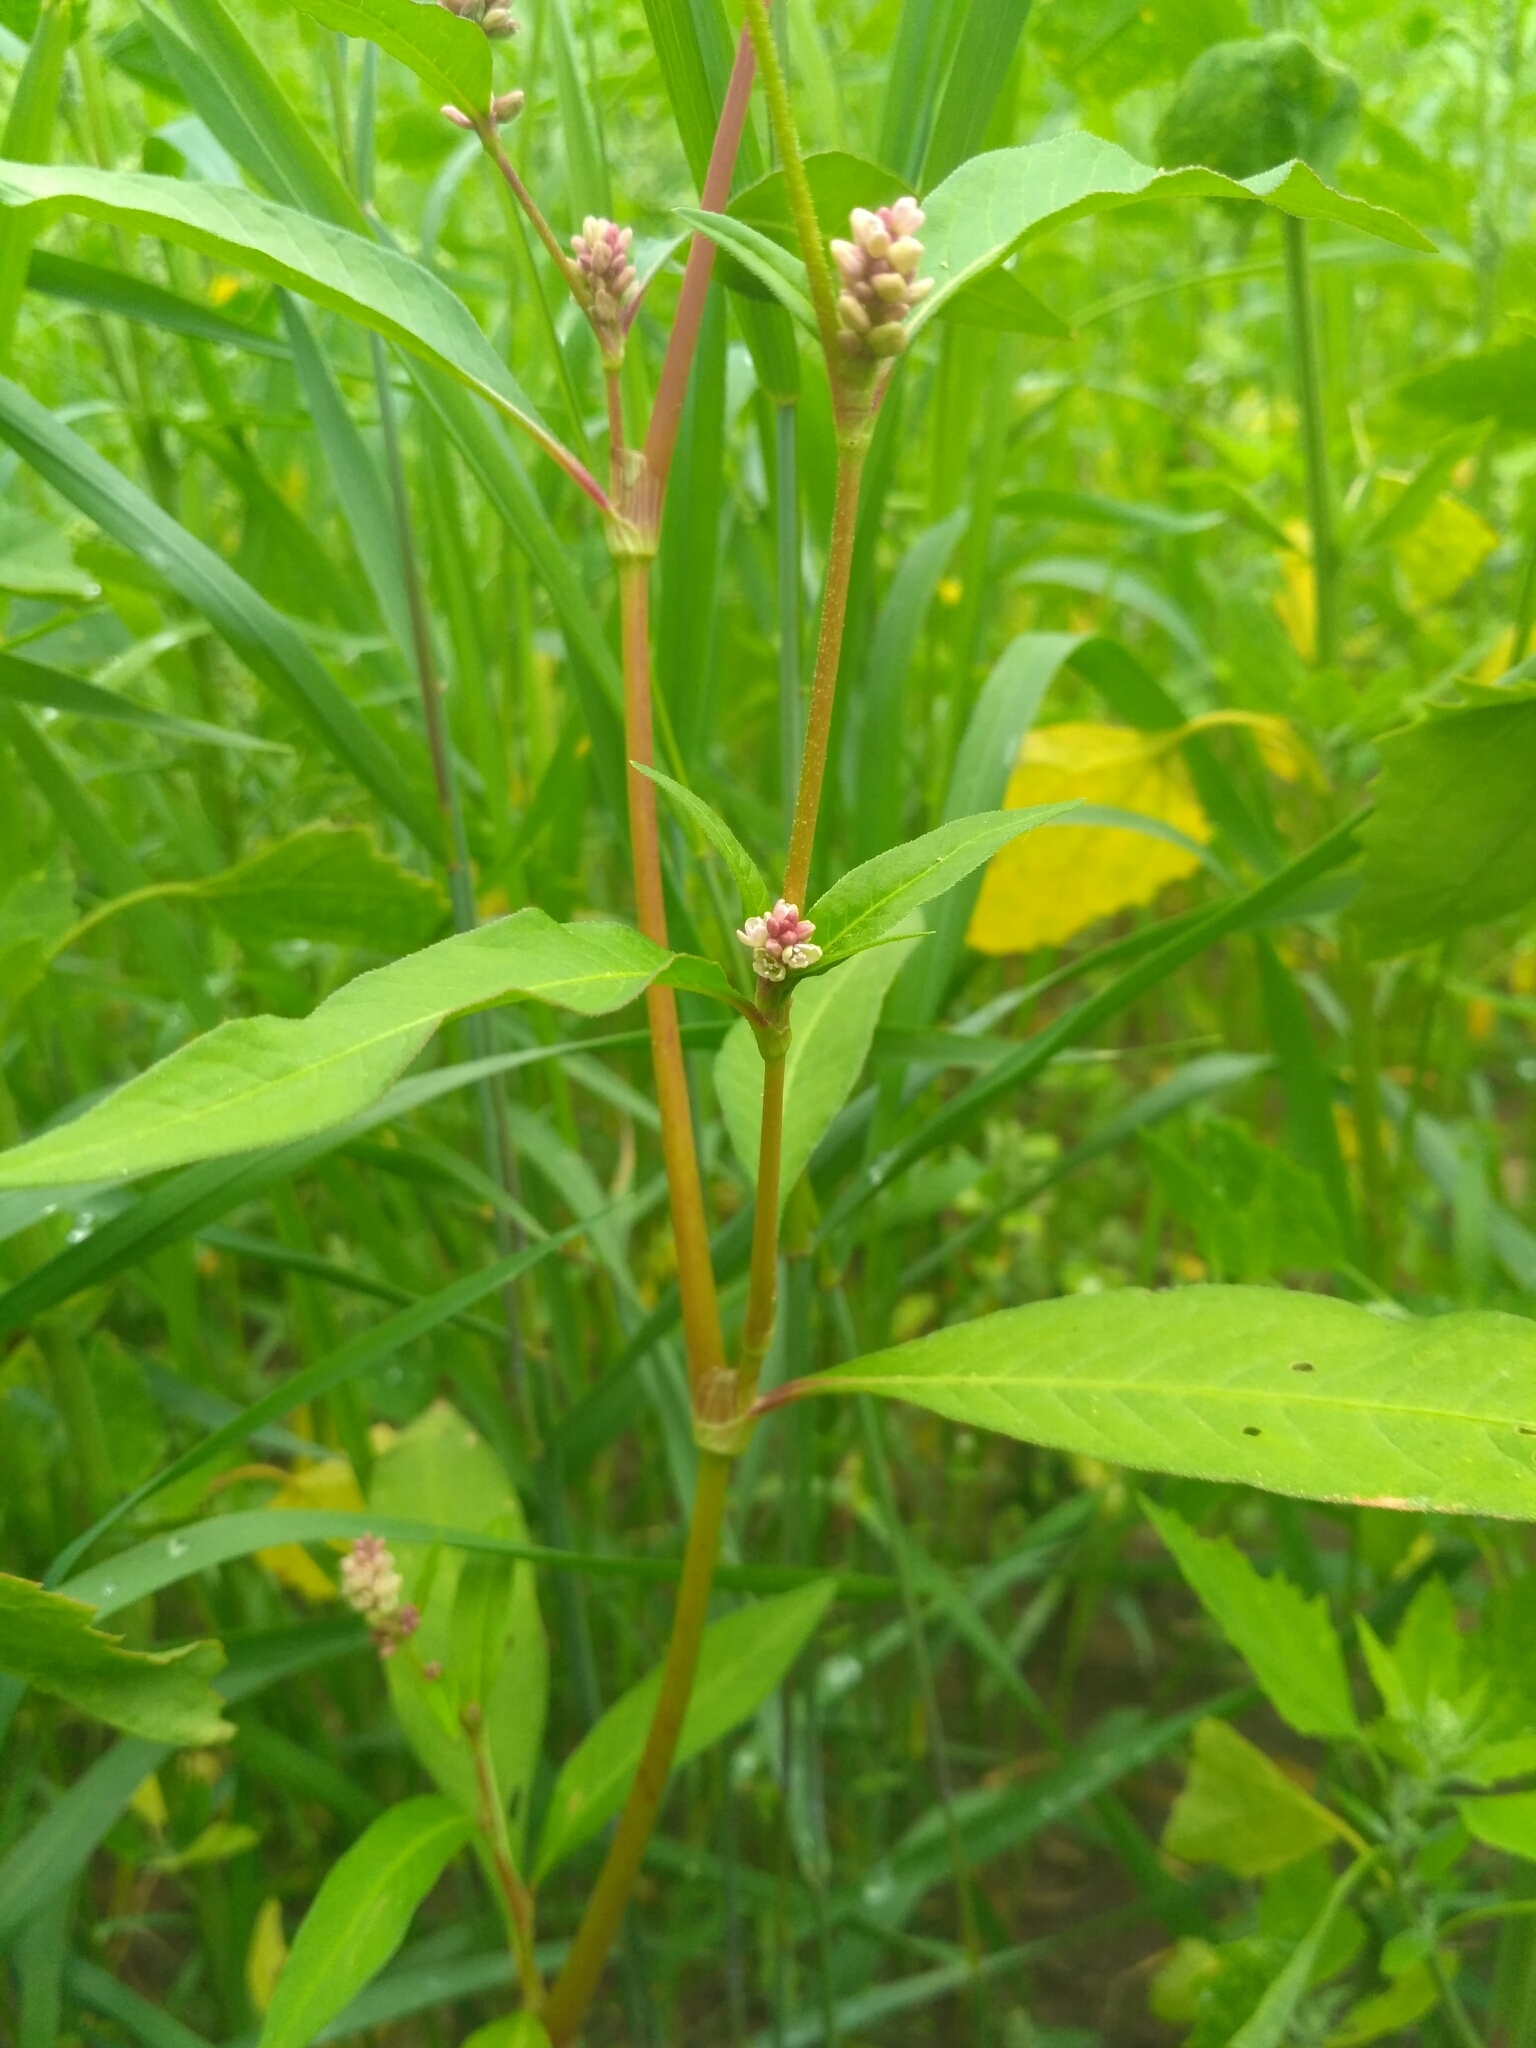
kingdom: Plantae
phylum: Tracheophyta
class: Magnoliopsida
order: Caryophyllales
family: Polygonaceae
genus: Persicaria
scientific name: Persicaria lapathifolia
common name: Curlytop knotweed
